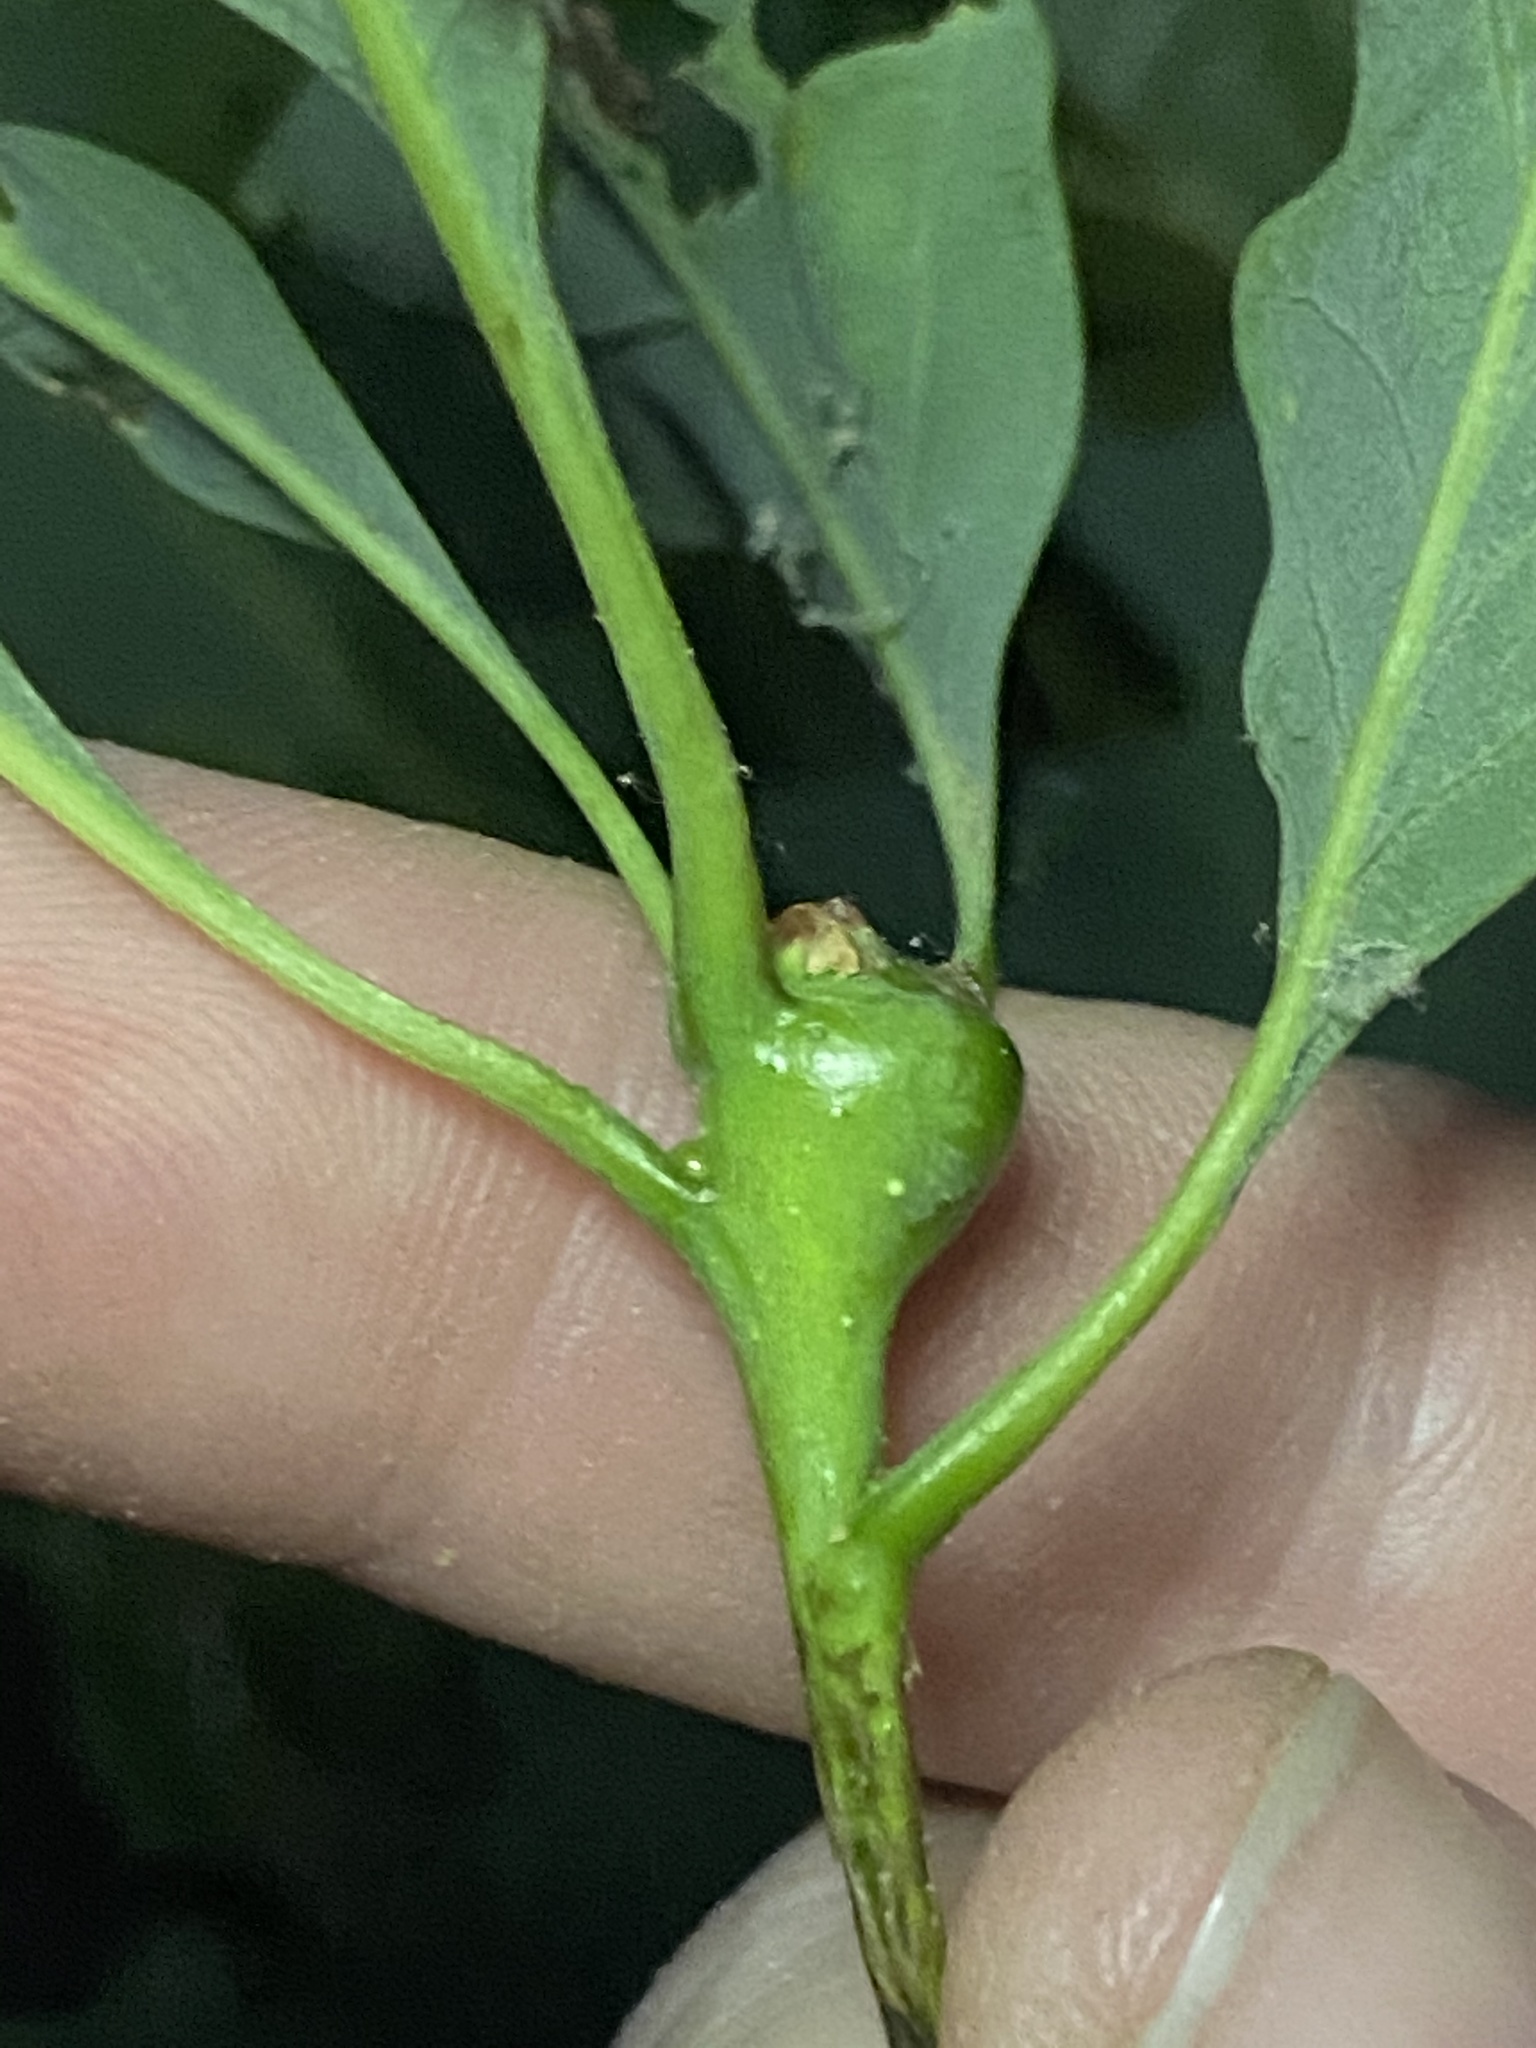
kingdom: Animalia
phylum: Arthropoda
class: Insecta
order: Hymenoptera
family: Cynipidae
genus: Callirhytis
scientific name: Callirhytis clavula
